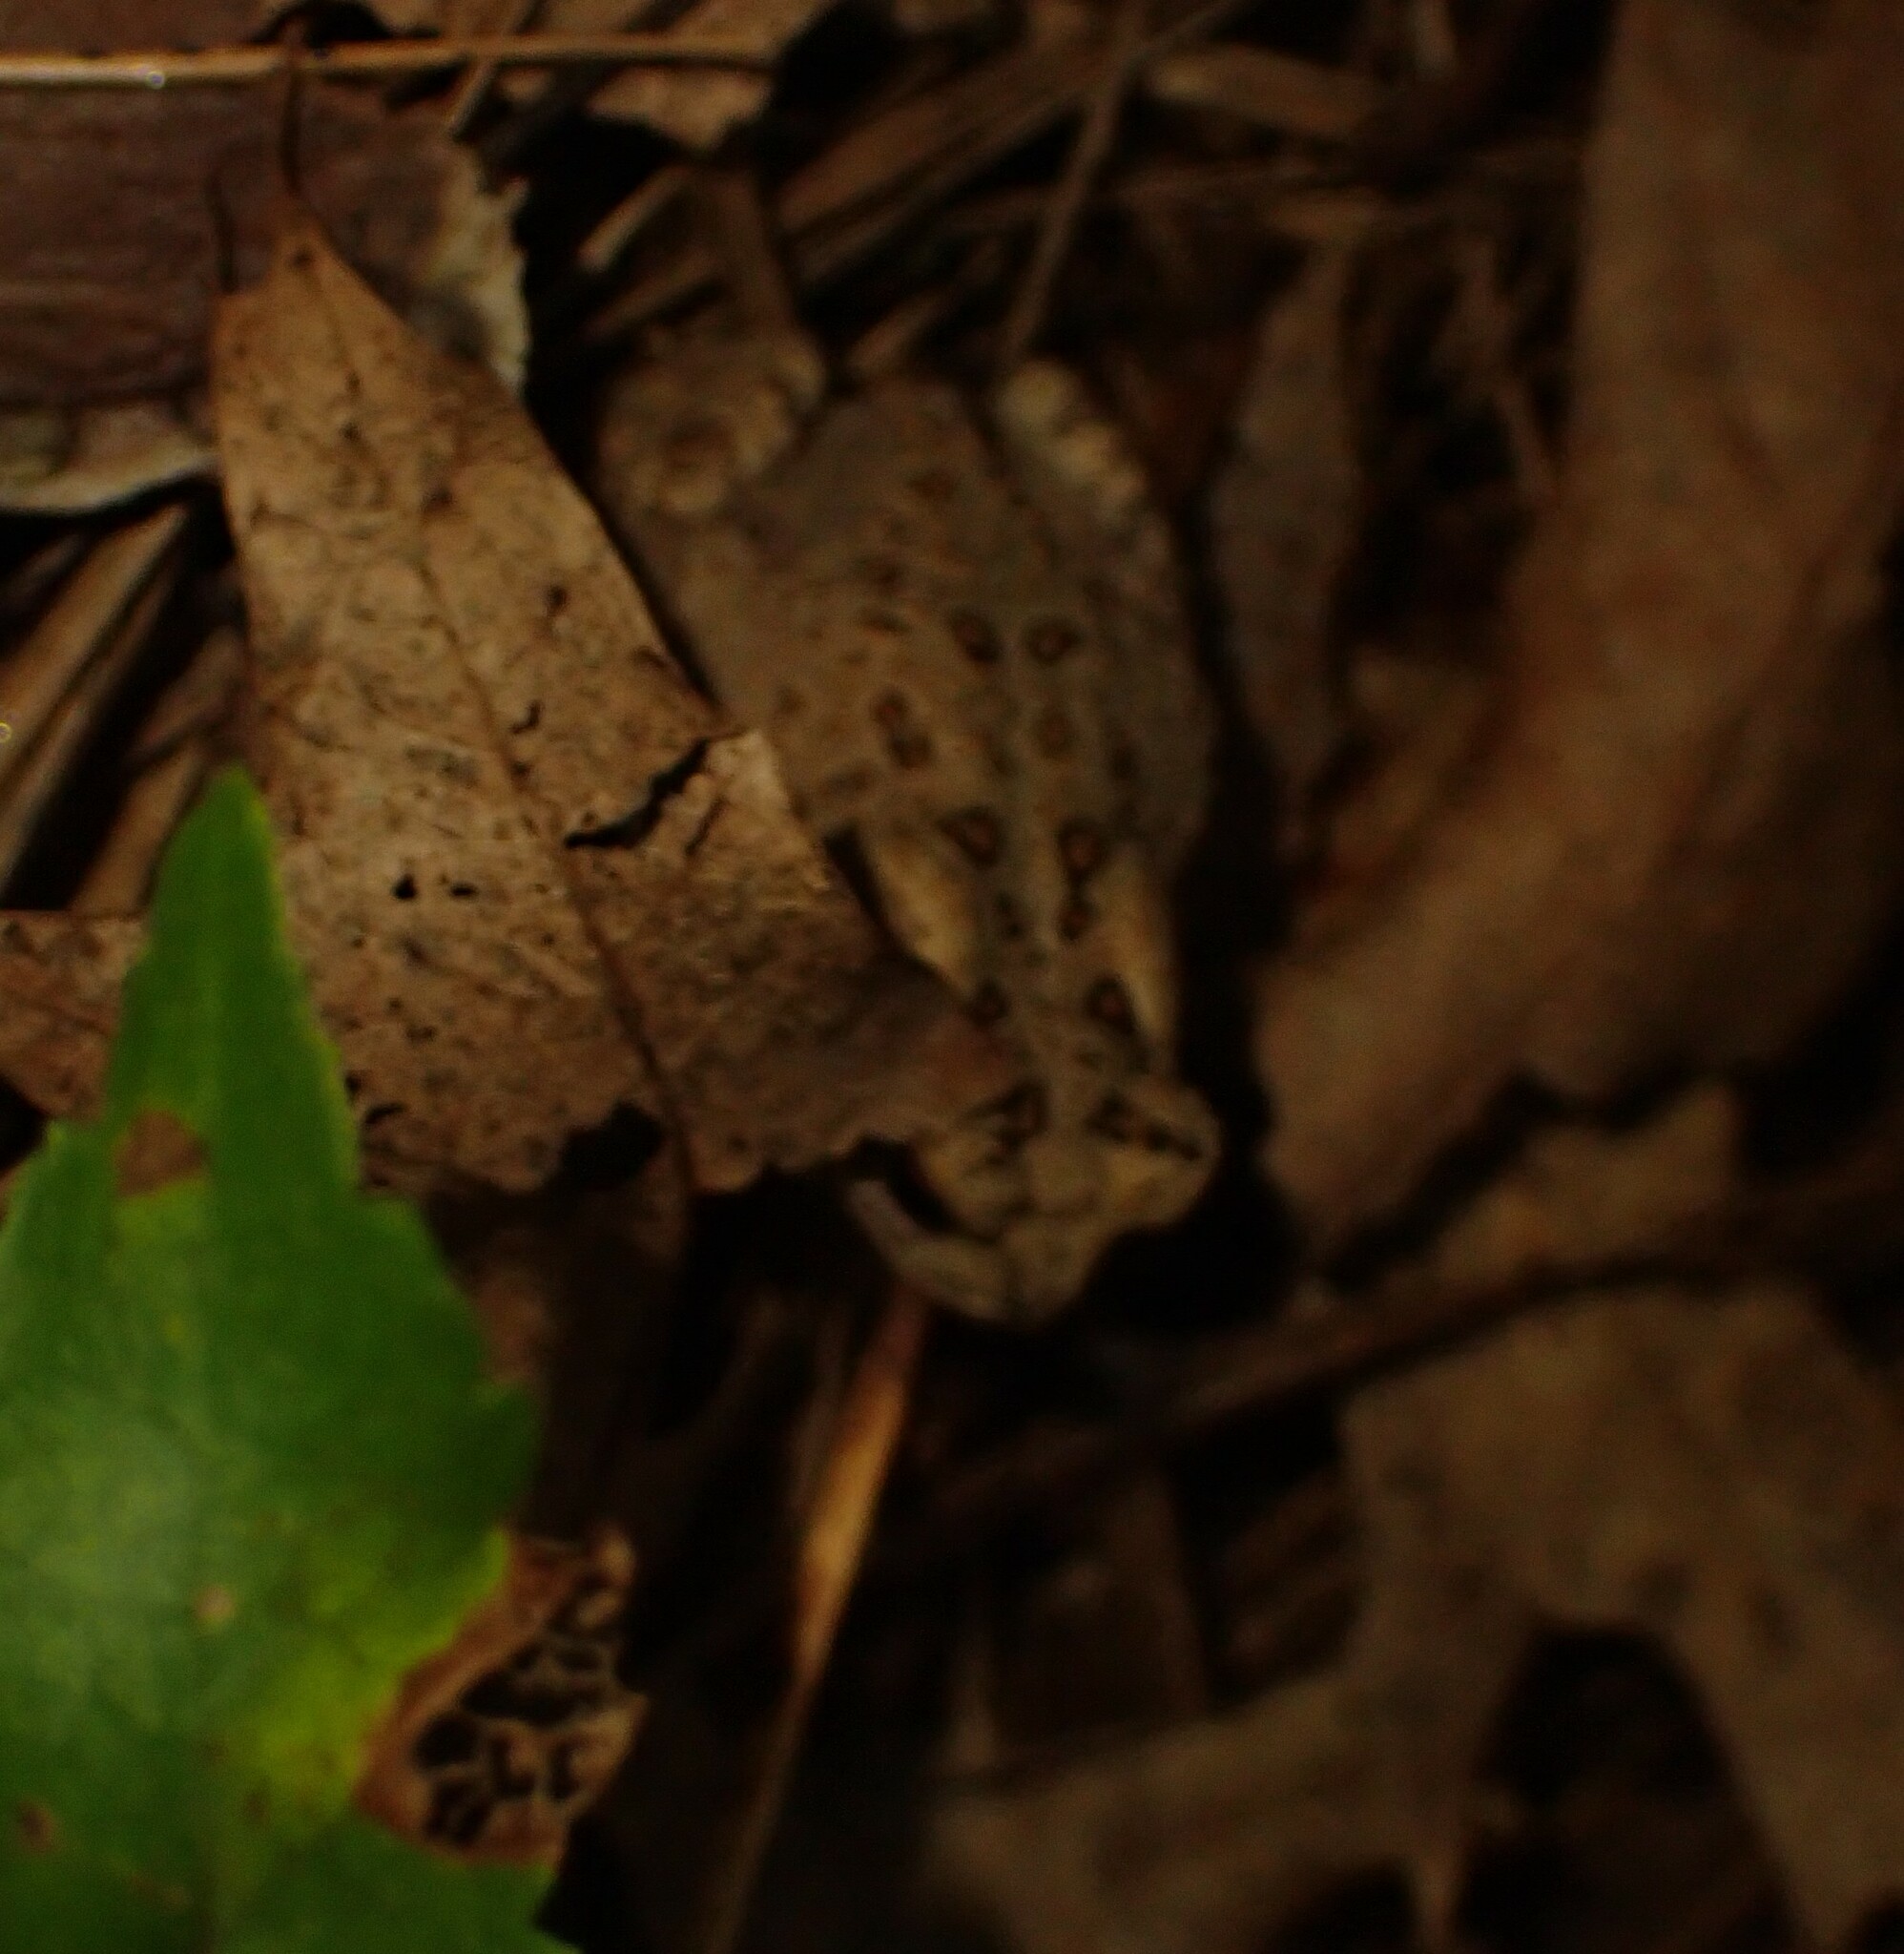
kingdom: Animalia
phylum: Chordata
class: Amphibia
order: Anura
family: Bufonidae
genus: Anaxyrus
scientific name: Anaxyrus americanus
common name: American toad
